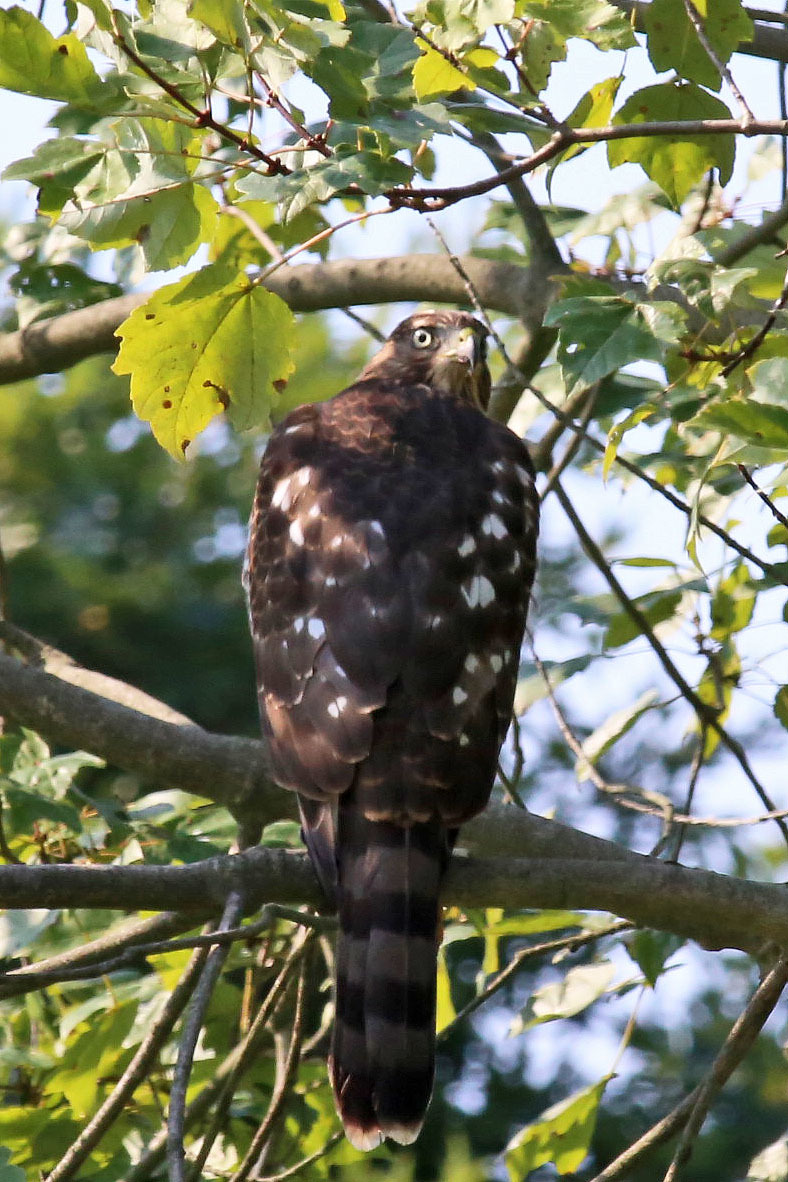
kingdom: Animalia
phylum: Chordata
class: Aves
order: Accipitriformes
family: Accipitridae
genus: Accipiter
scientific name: Accipiter cooperii
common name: Cooper's hawk
